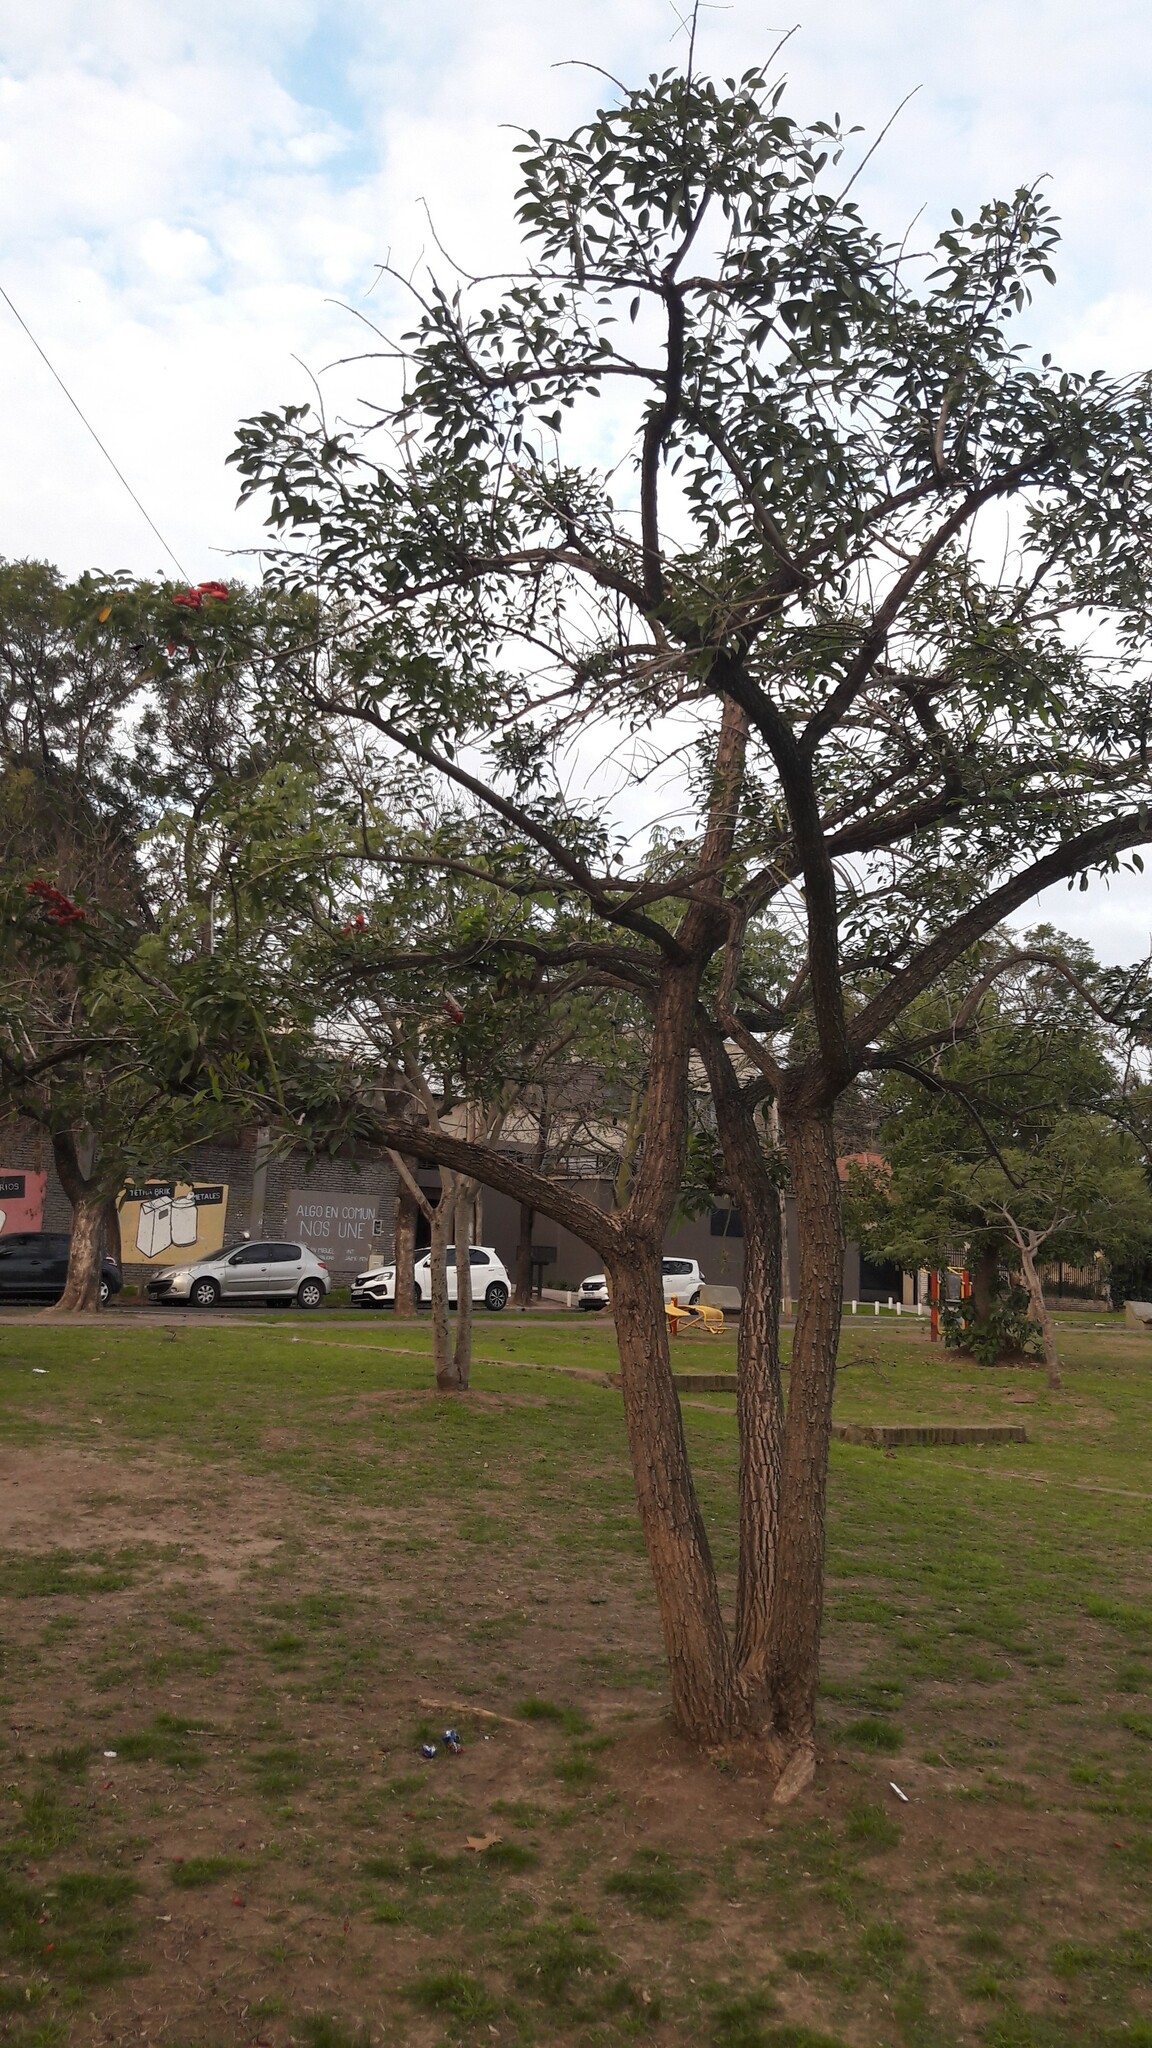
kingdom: Plantae
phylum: Tracheophyta
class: Magnoliopsida
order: Fabales
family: Fabaceae
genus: Erythrina
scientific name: Erythrina crista-galli
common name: Cockspur coral tree
